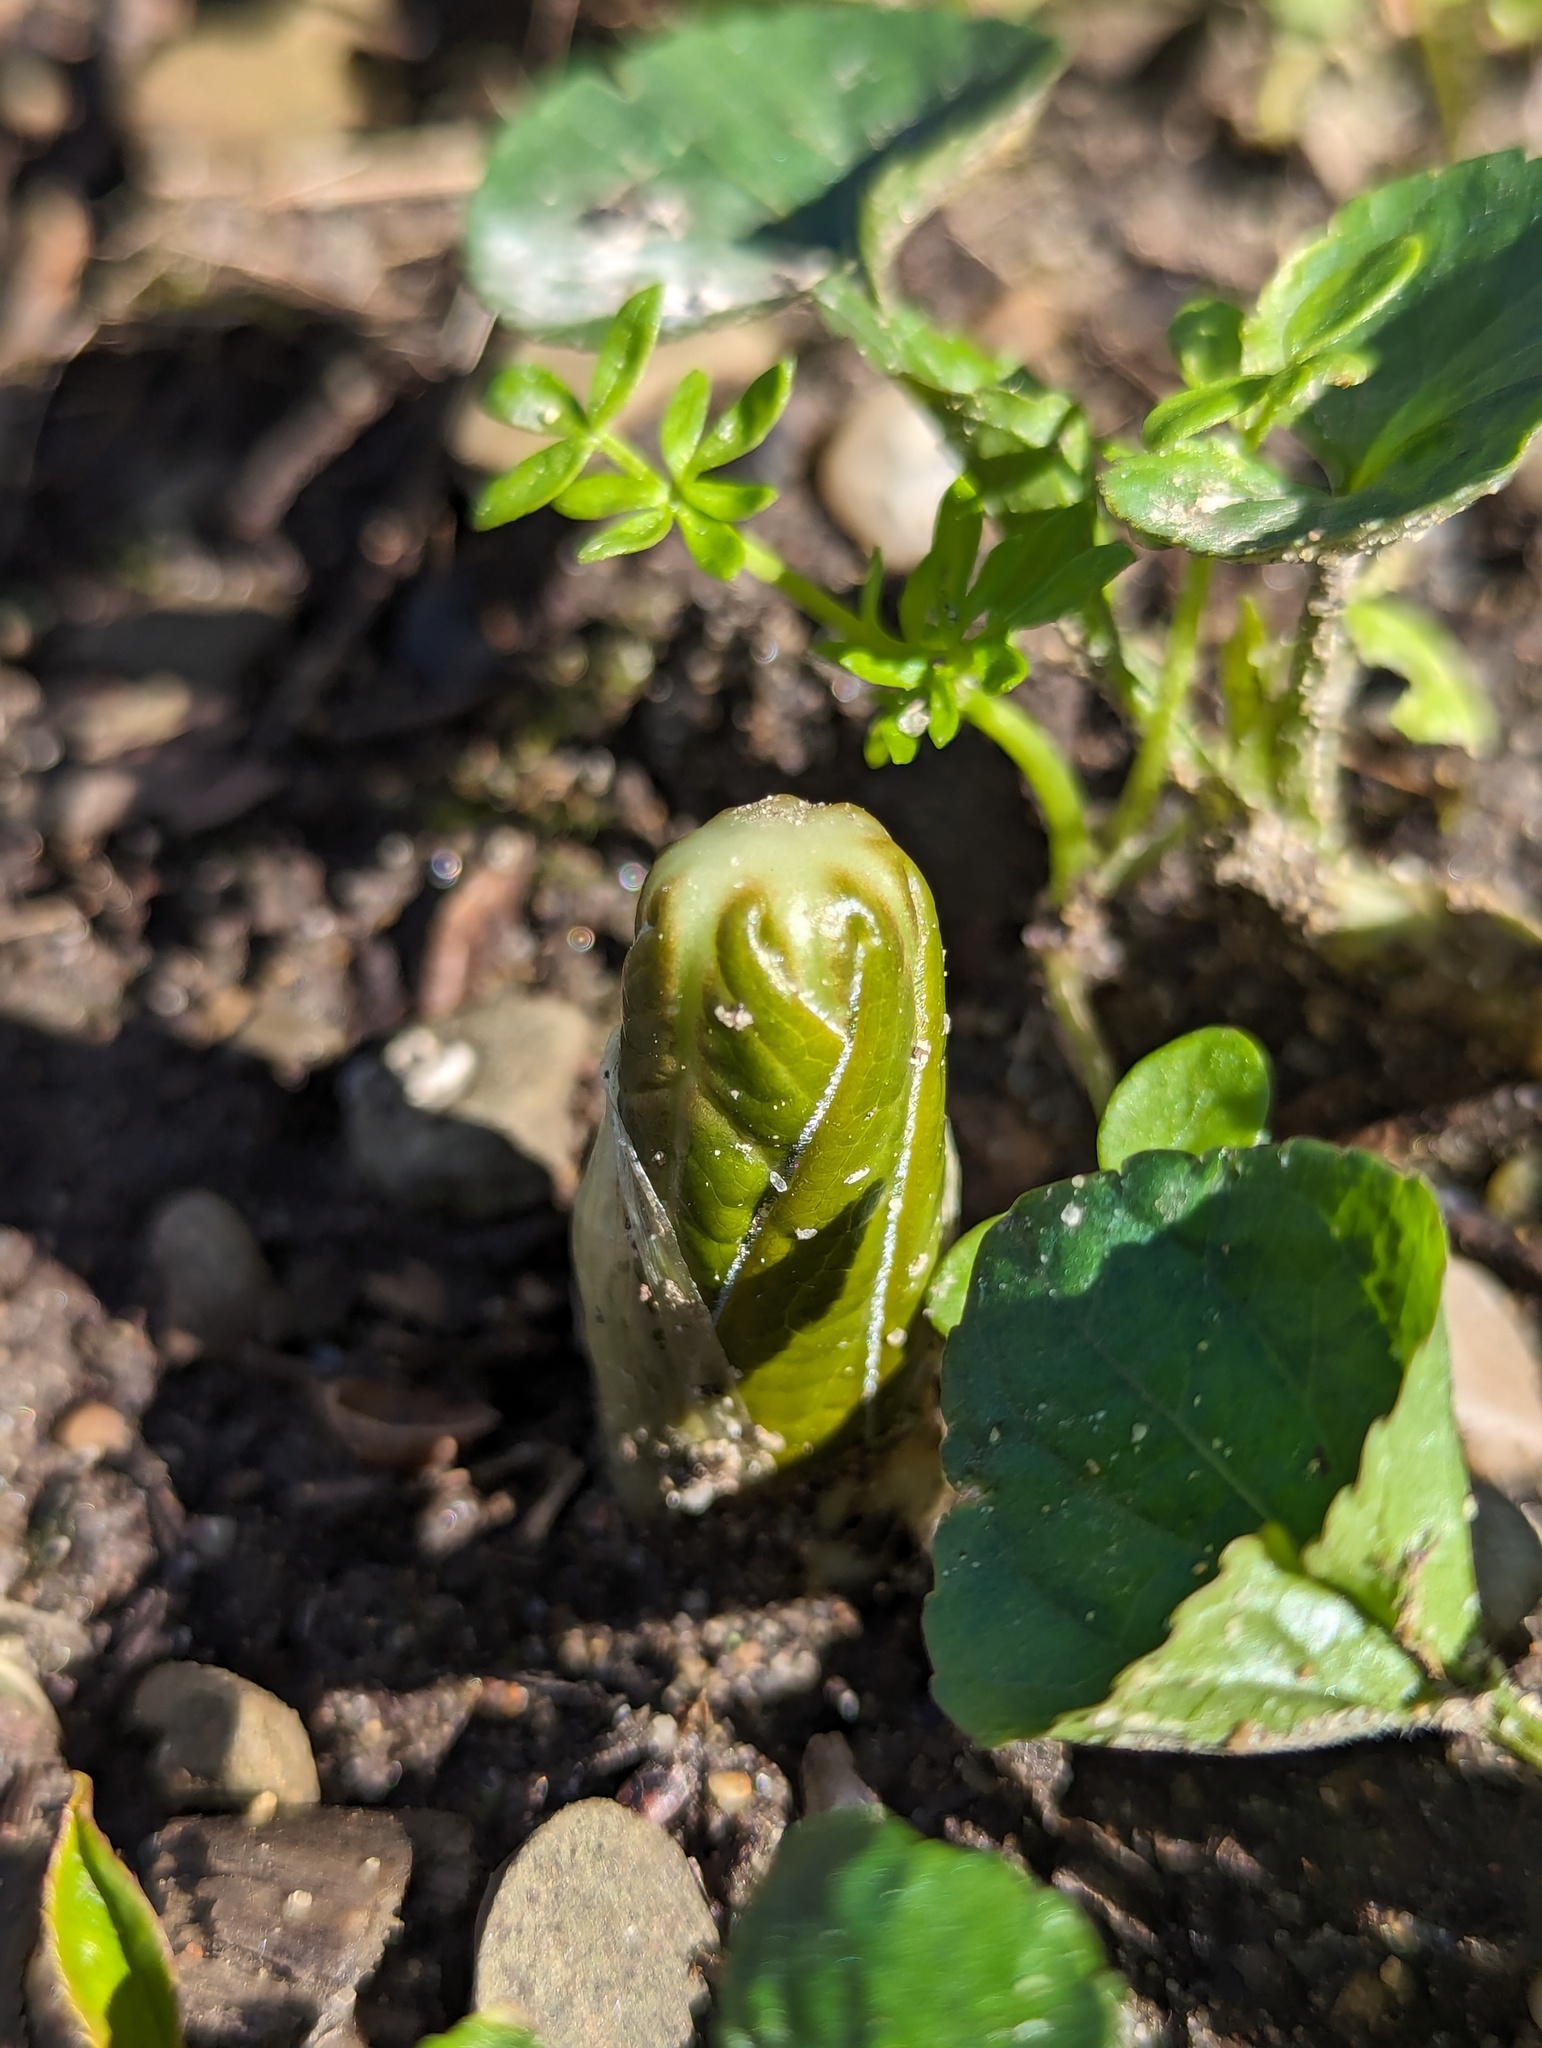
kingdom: Plantae
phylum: Tracheophyta
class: Magnoliopsida
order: Ranunculales
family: Berberidaceae
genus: Podophyllum
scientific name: Podophyllum peltatum
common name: Wild mandrake
